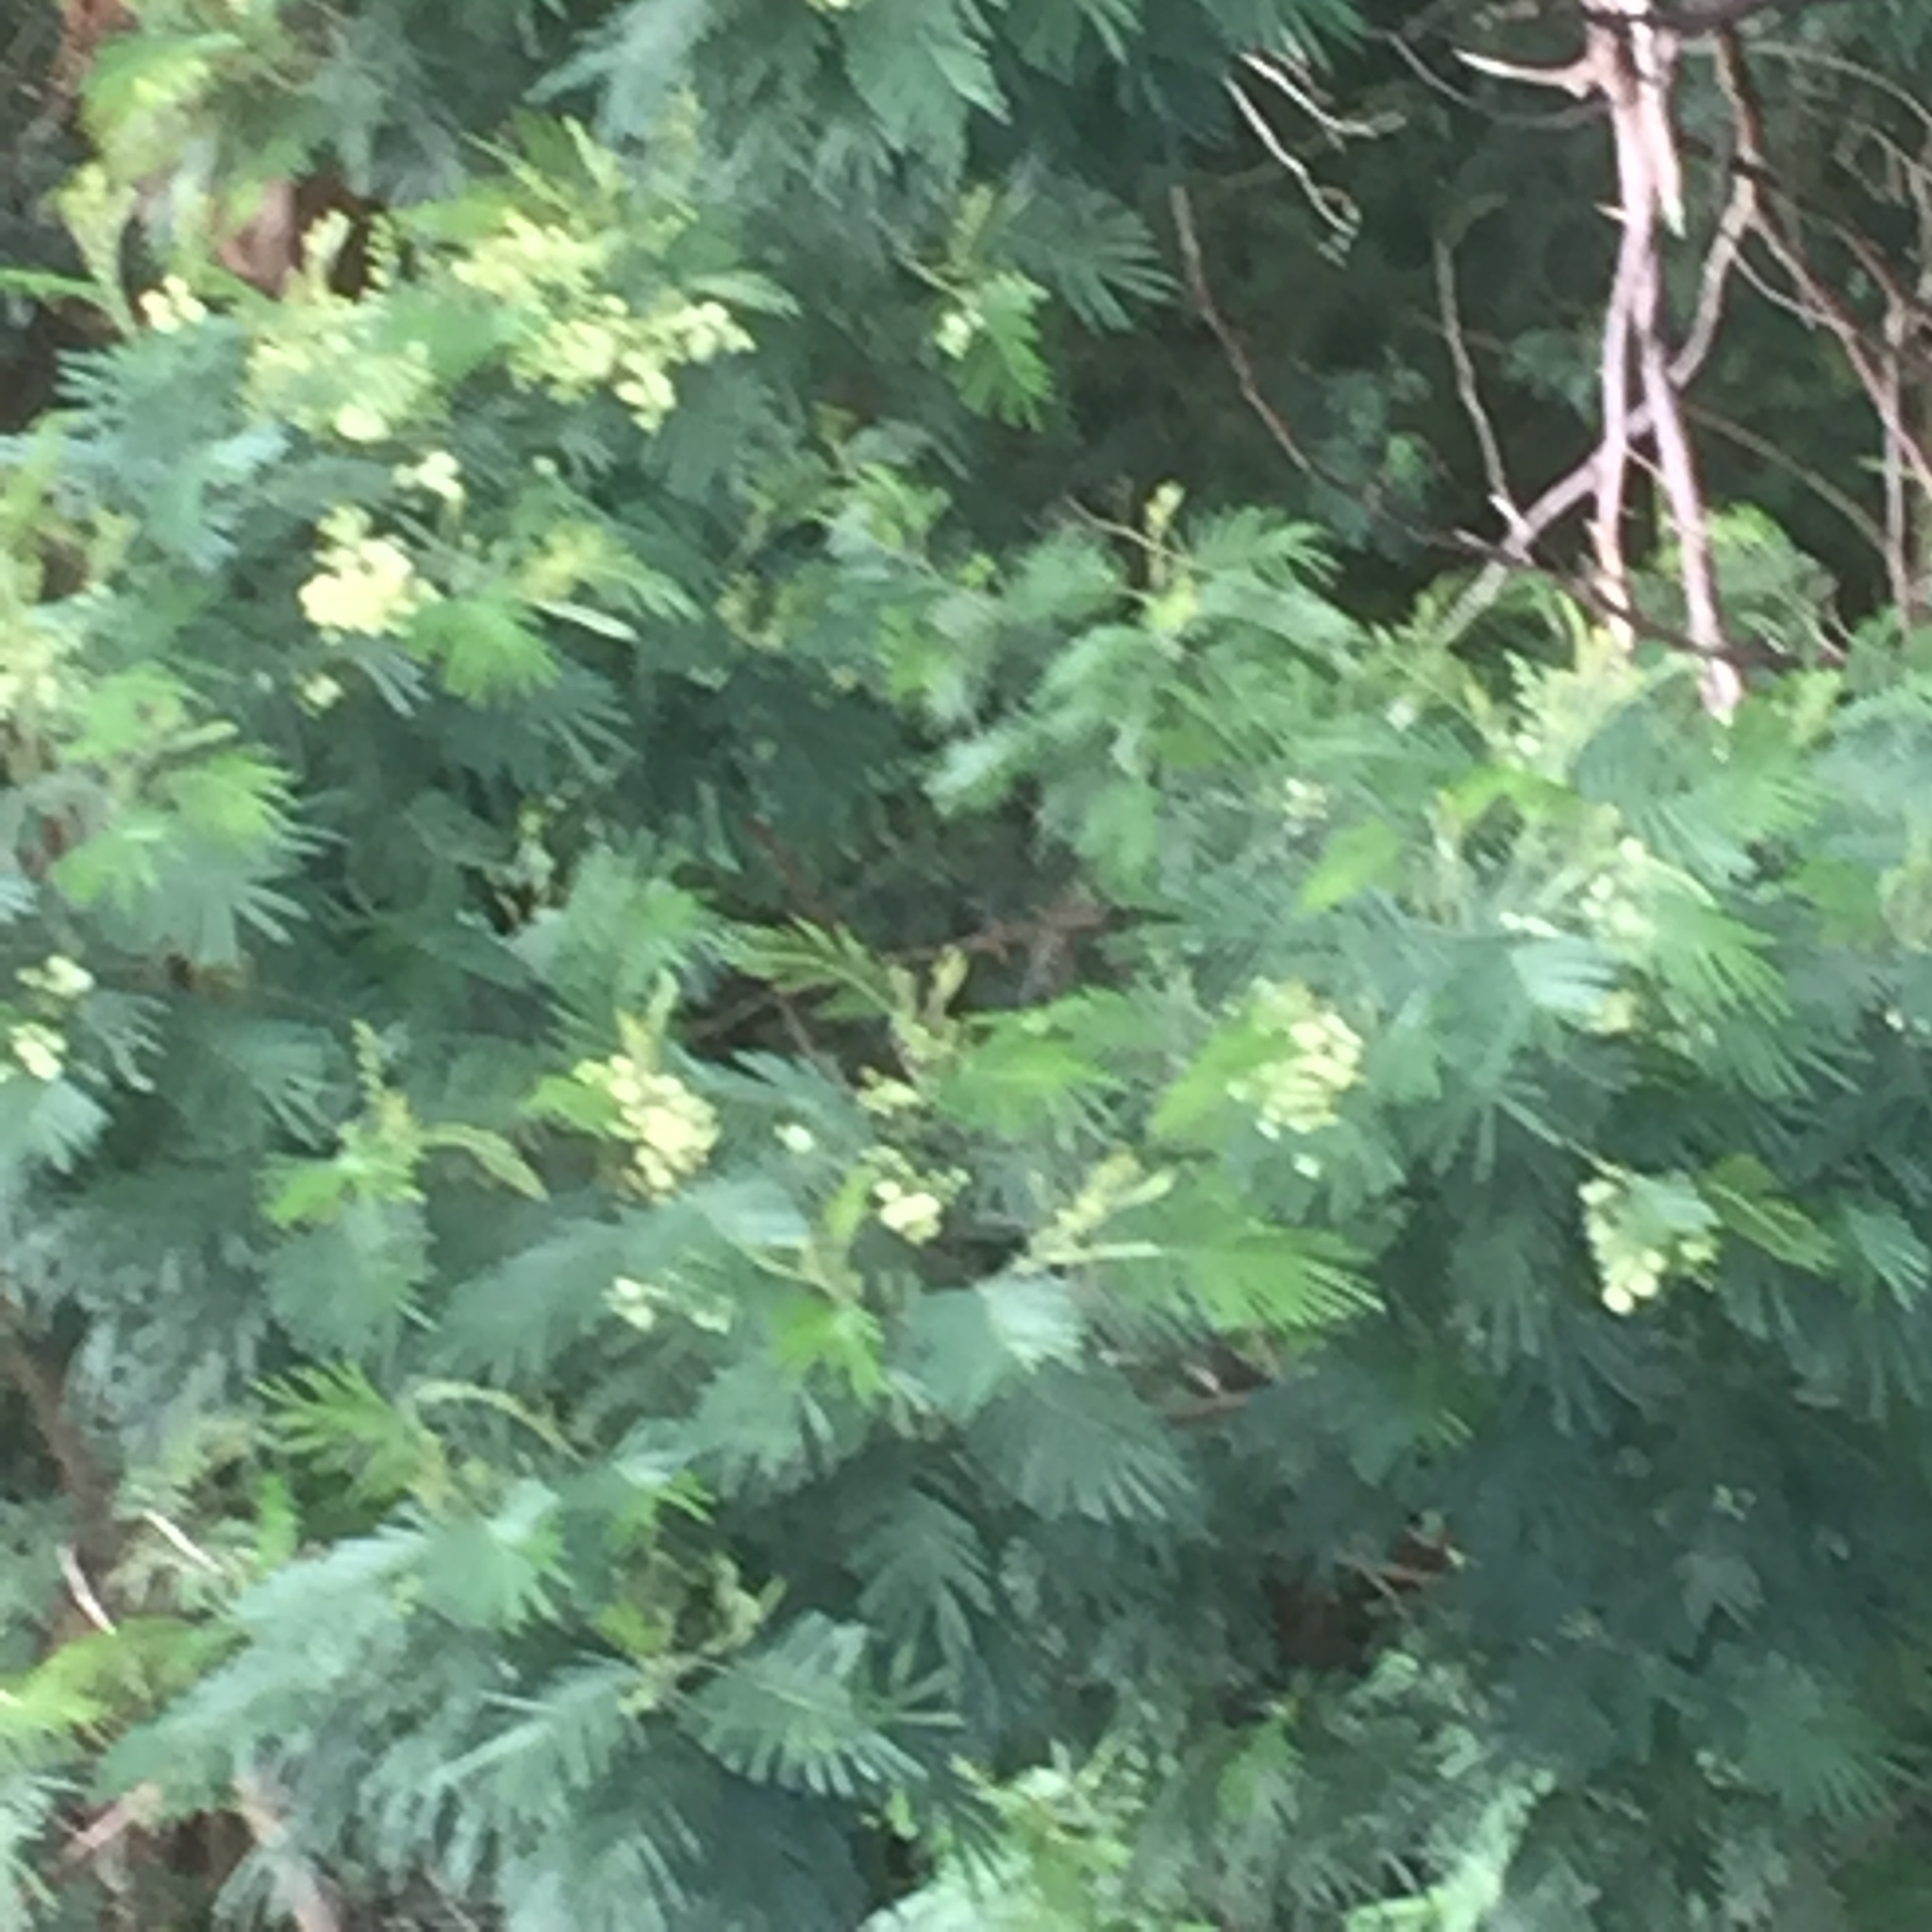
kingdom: Plantae
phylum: Tracheophyta
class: Magnoliopsida
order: Fabales
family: Fabaceae
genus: Acacia
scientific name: Acacia mearnsii
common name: Black wattle
